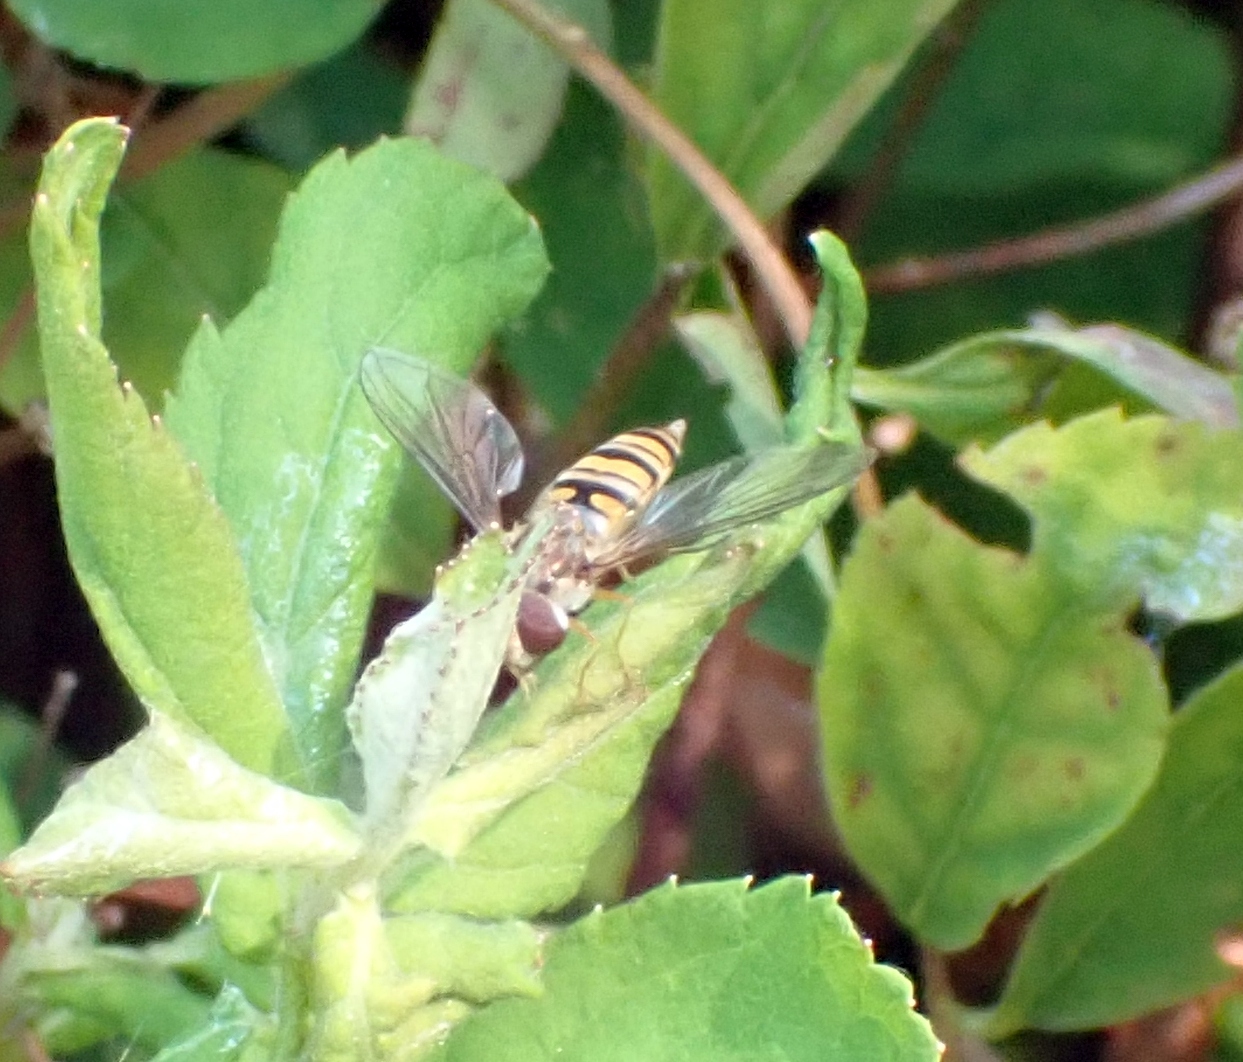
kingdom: Animalia
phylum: Arthropoda
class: Insecta
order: Diptera
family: Syrphidae
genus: Episyrphus
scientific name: Episyrphus balteatus
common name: Marmalade hoverfly
